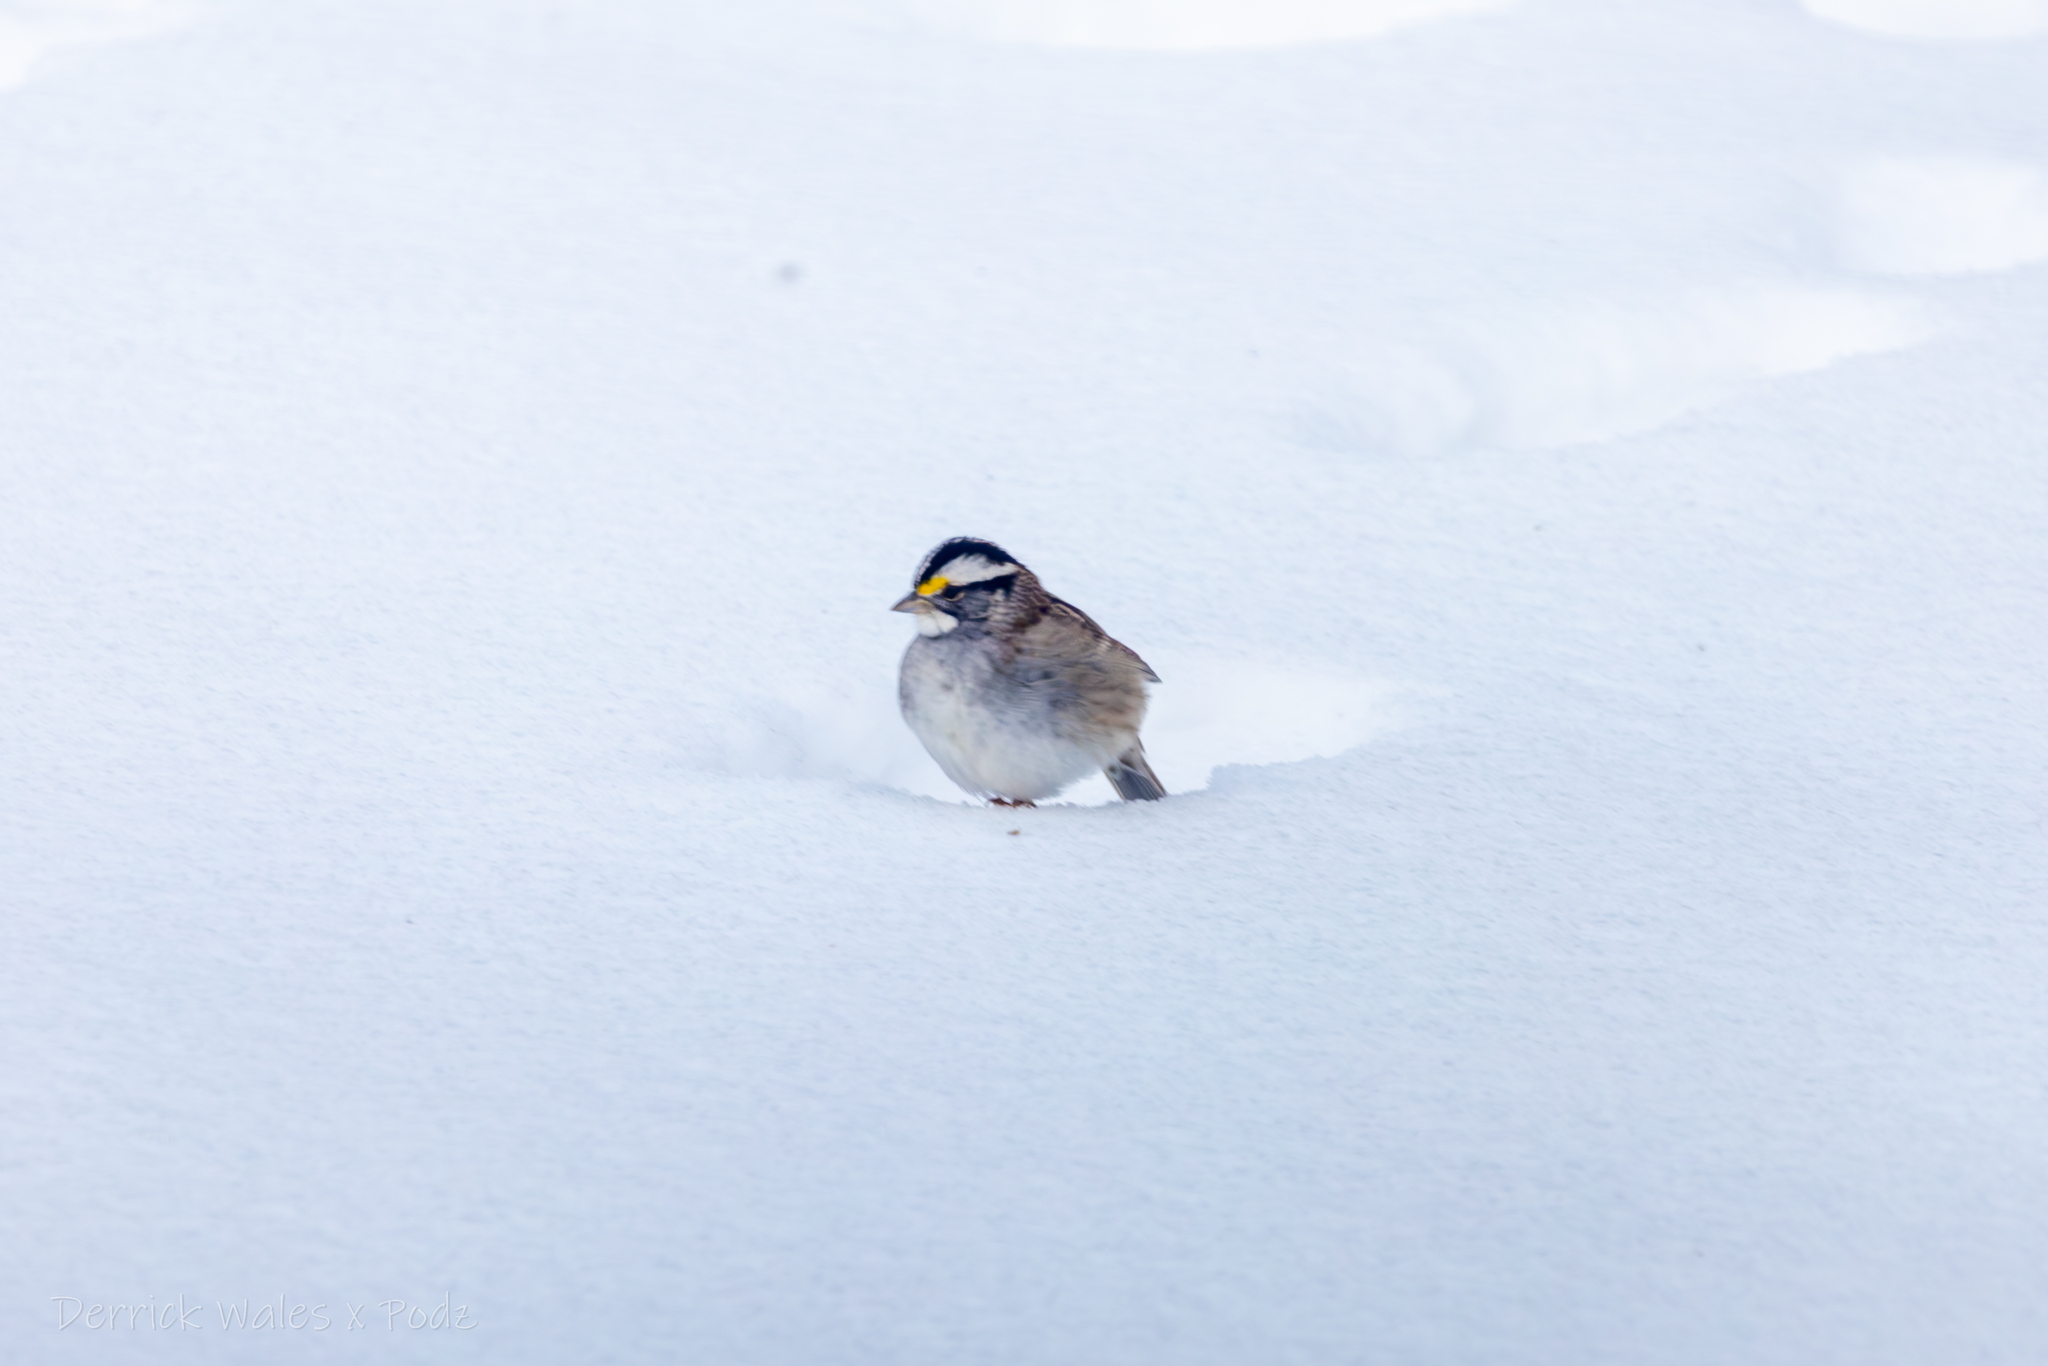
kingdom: Animalia
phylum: Chordata
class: Aves
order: Passeriformes
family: Passerellidae
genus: Zonotrichia
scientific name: Zonotrichia albicollis
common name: White-throated sparrow
